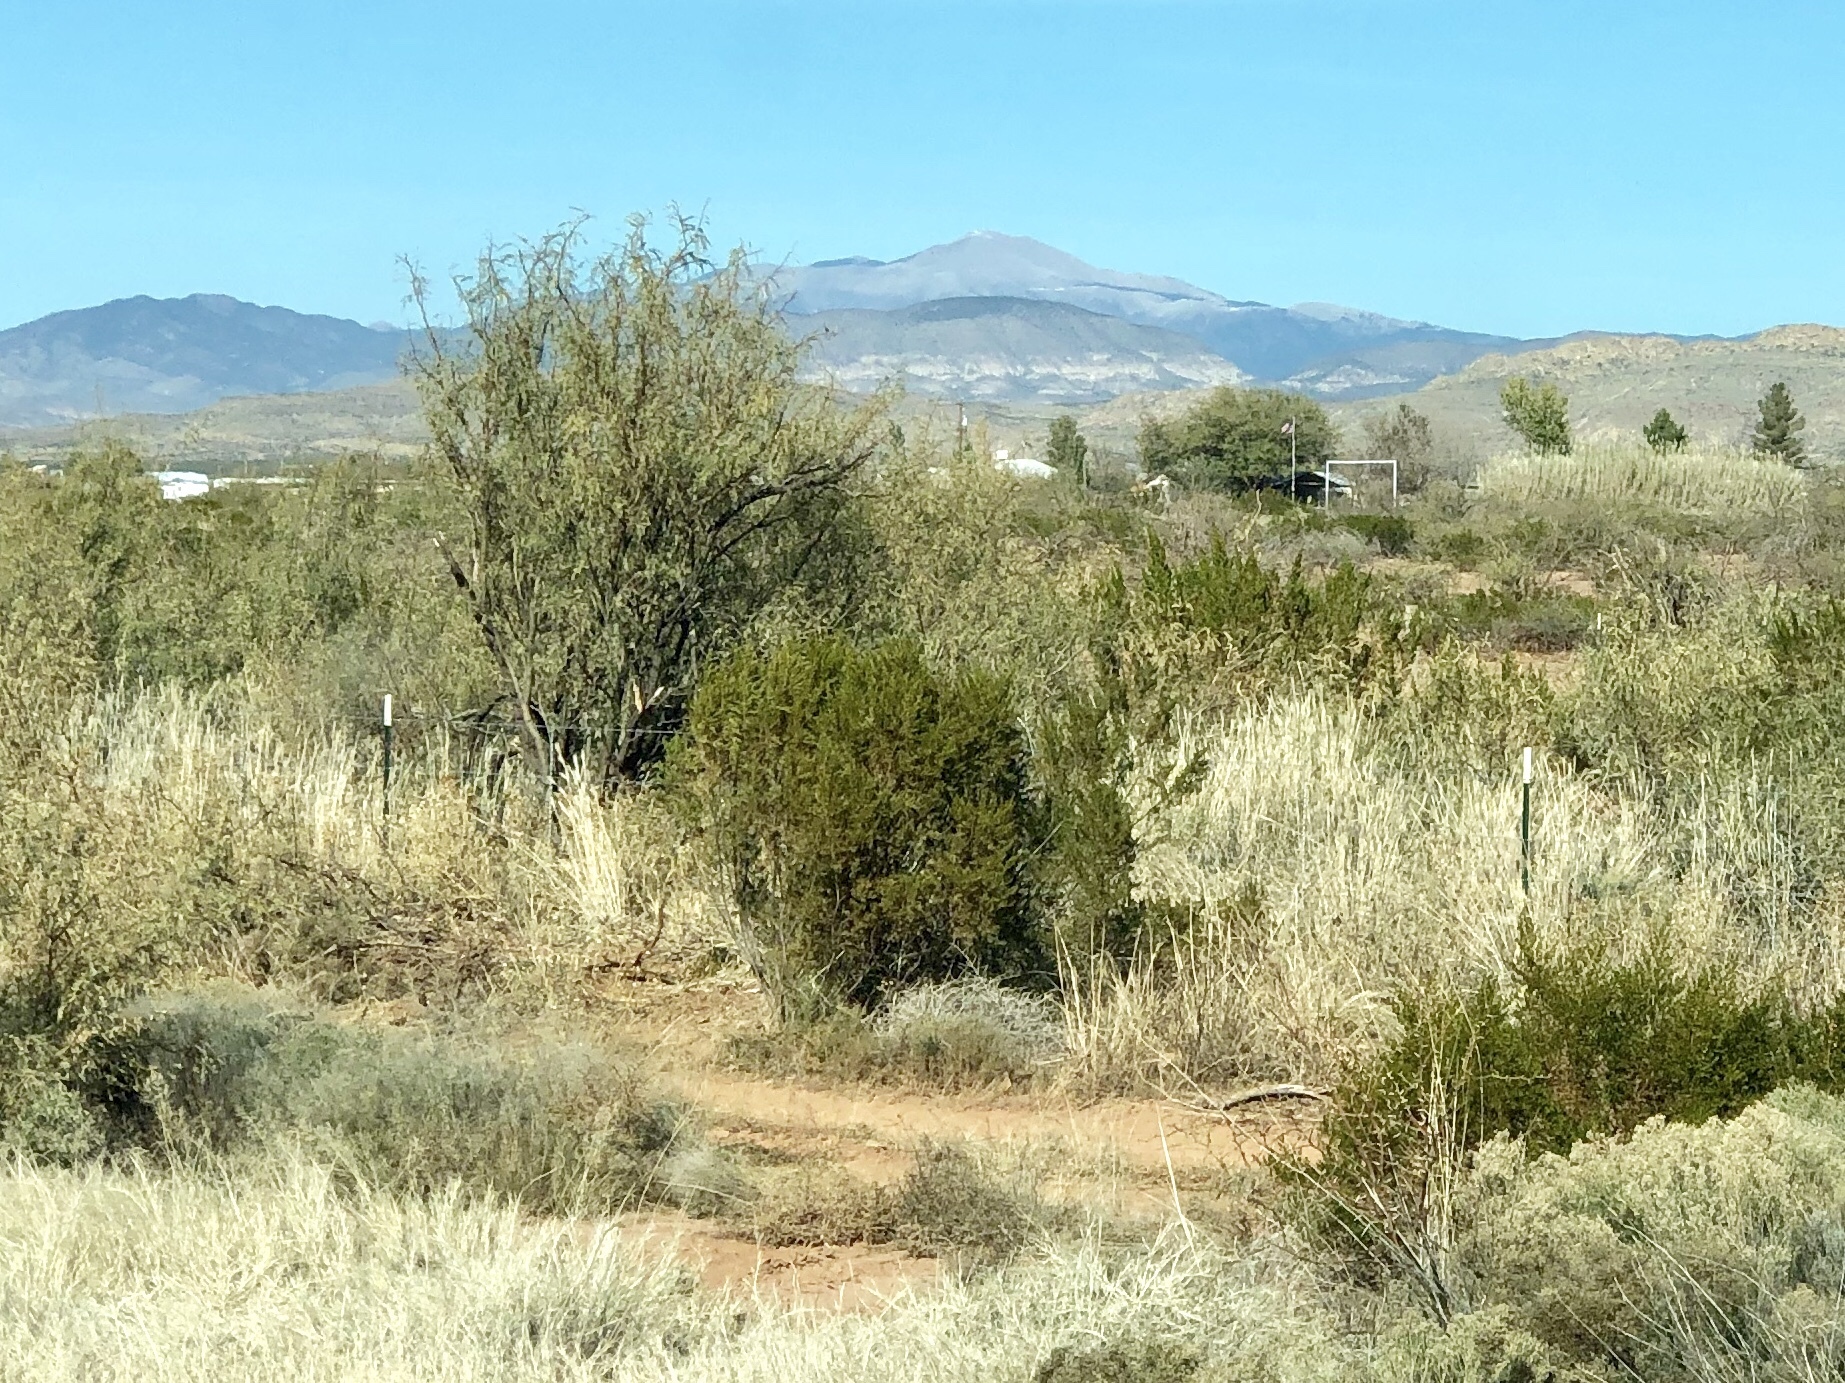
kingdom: Plantae
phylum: Tracheophyta
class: Magnoliopsida
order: Zygophyllales
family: Zygophyllaceae
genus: Larrea
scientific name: Larrea tridentata
